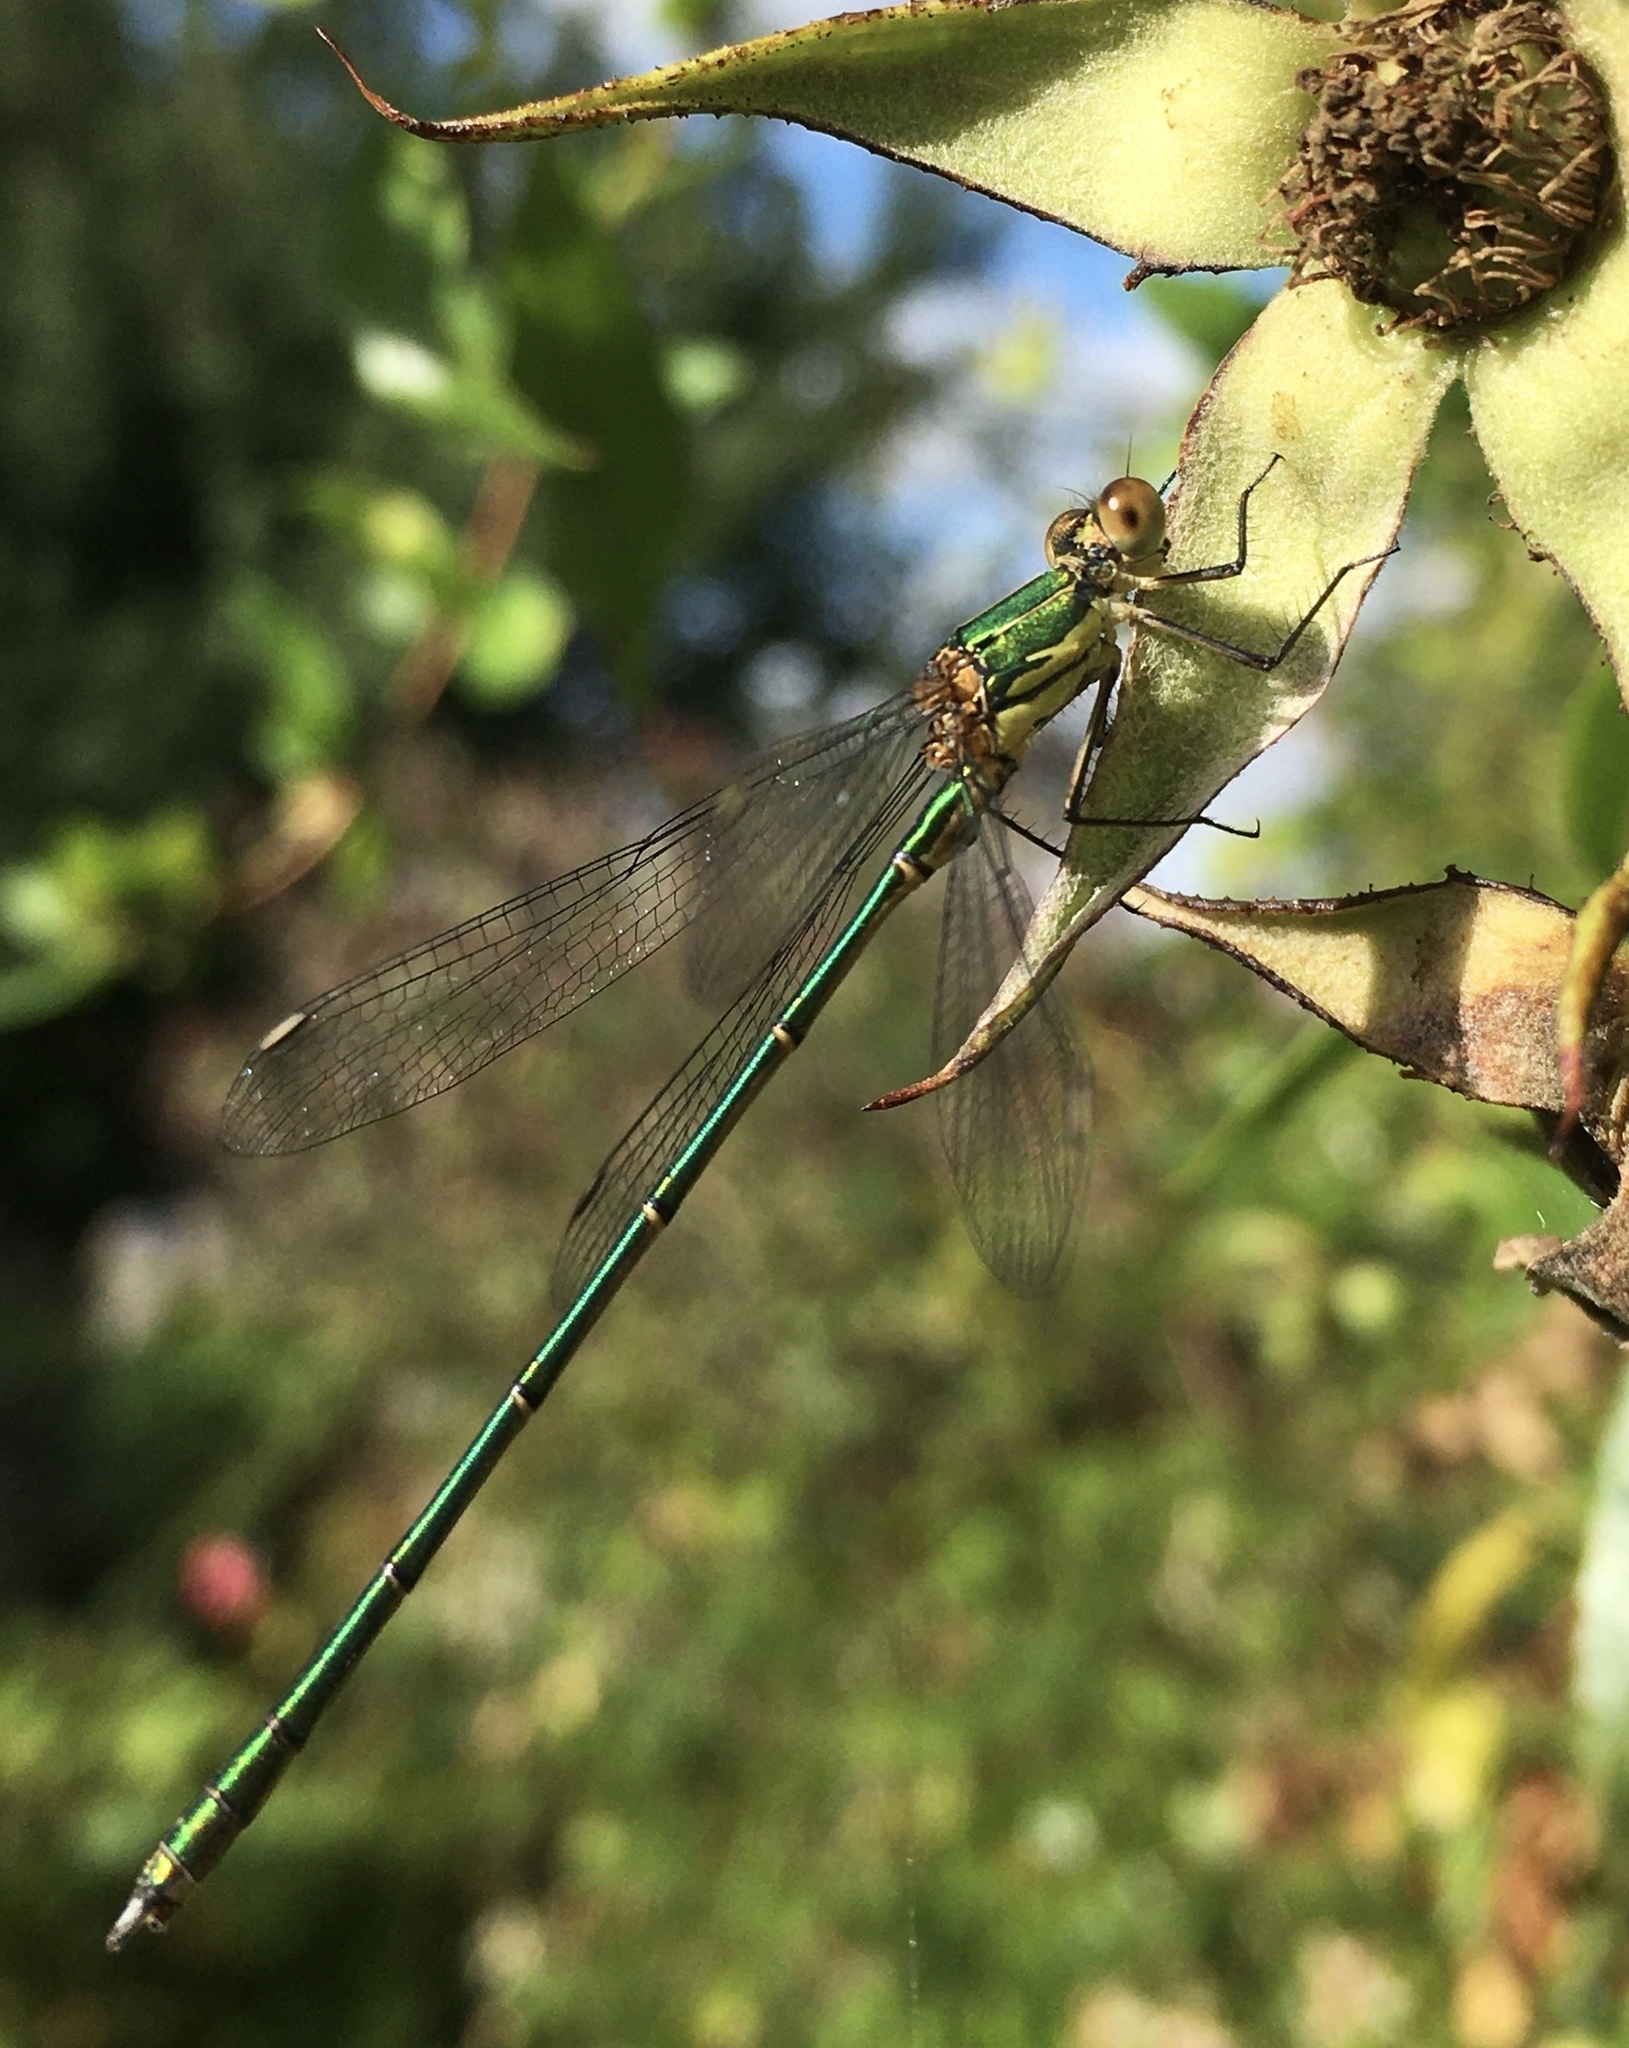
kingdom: Animalia
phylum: Arthropoda
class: Insecta
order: Odonata
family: Lestidae
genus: Chalcolestes
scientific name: Chalcolestes viridis
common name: Green emerald damselfly
